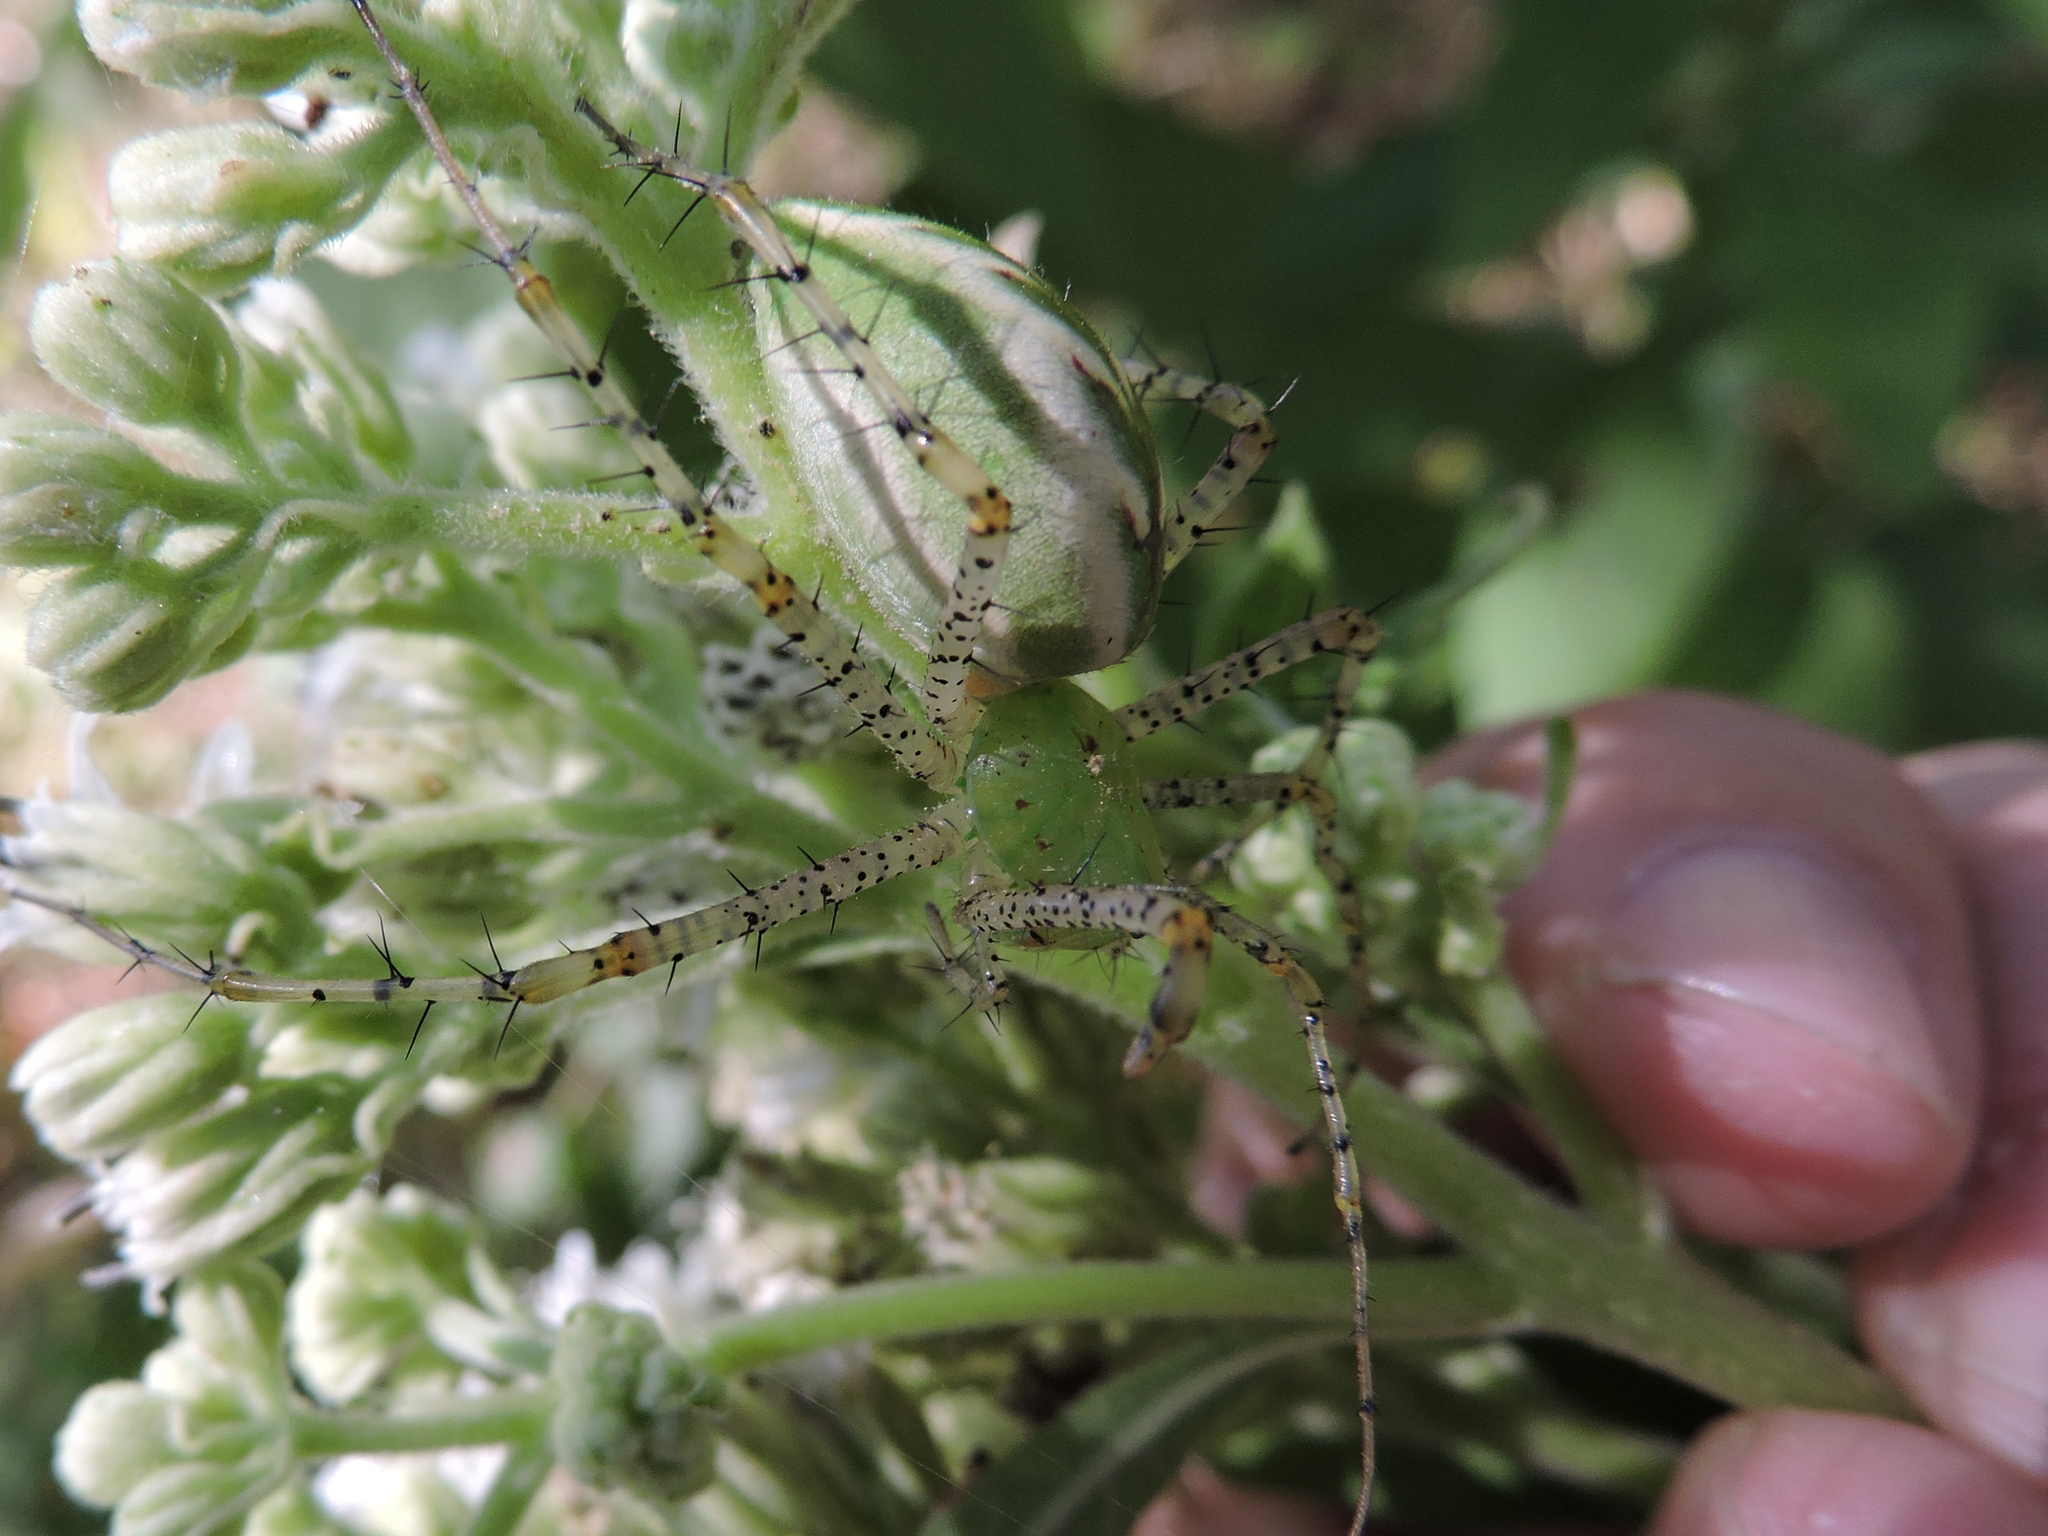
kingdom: Animalia
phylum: Arthropoda
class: Arachnida
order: Araneae
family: Oxyopidae
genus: Peucetia
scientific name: Peucetia viridans
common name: Lynx spiders
